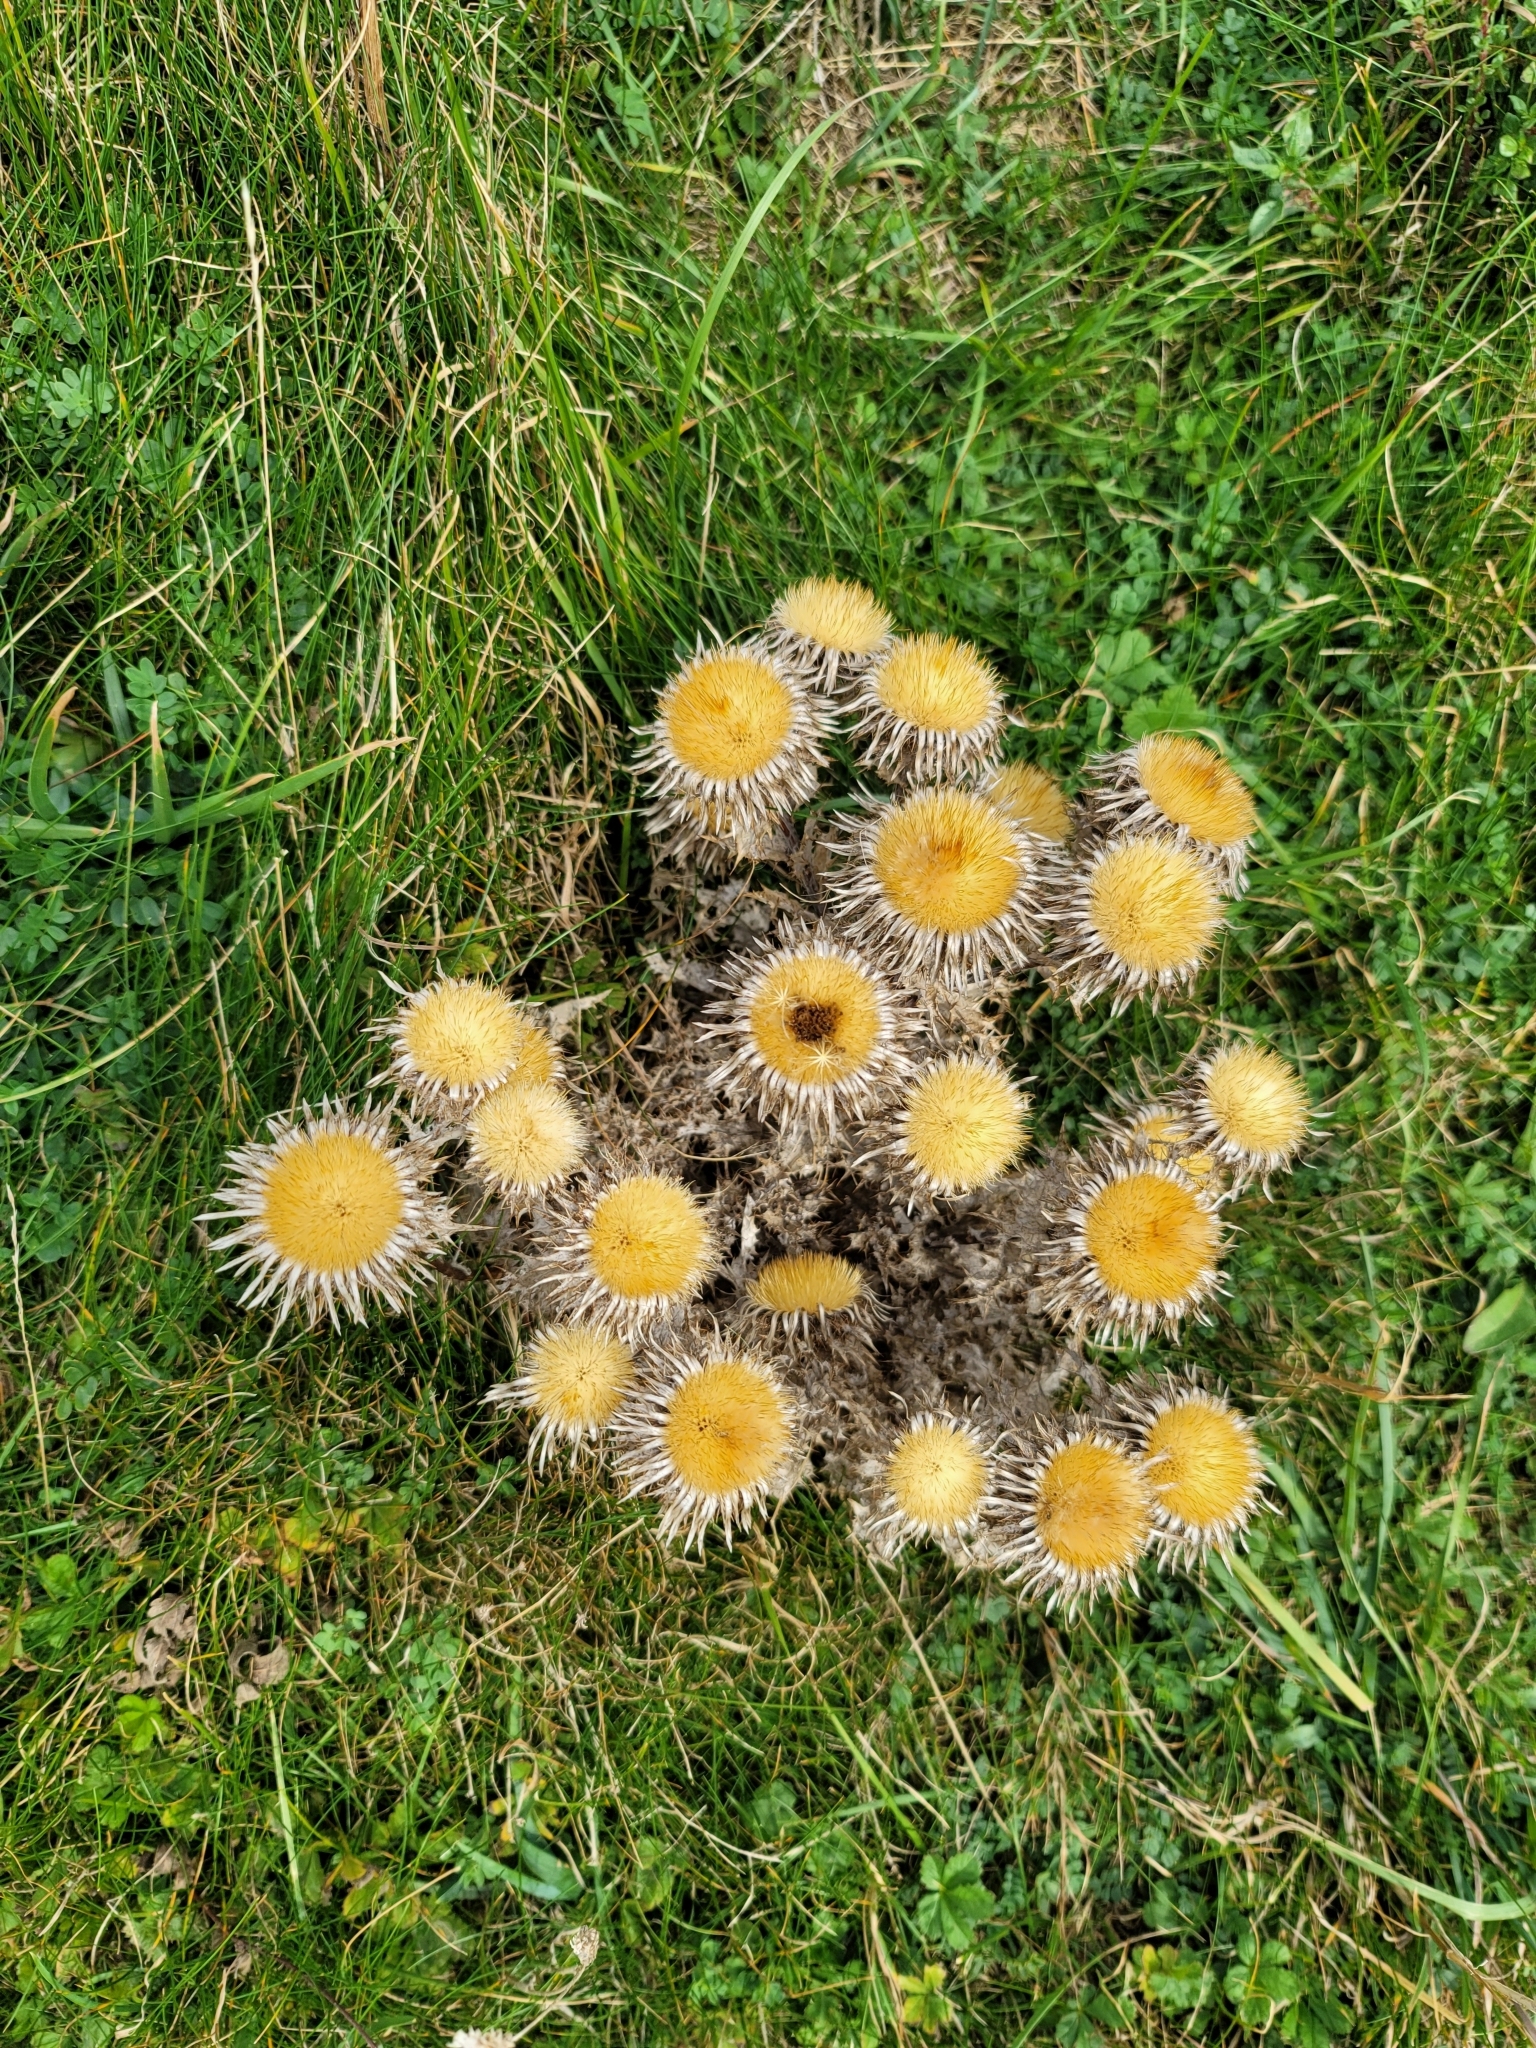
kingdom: Plantae
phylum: Tracheophyta
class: Magnoliopsida
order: Asterales
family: Asteraceae
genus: Carlina
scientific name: Carlina vulgaris
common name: Carline thistle
